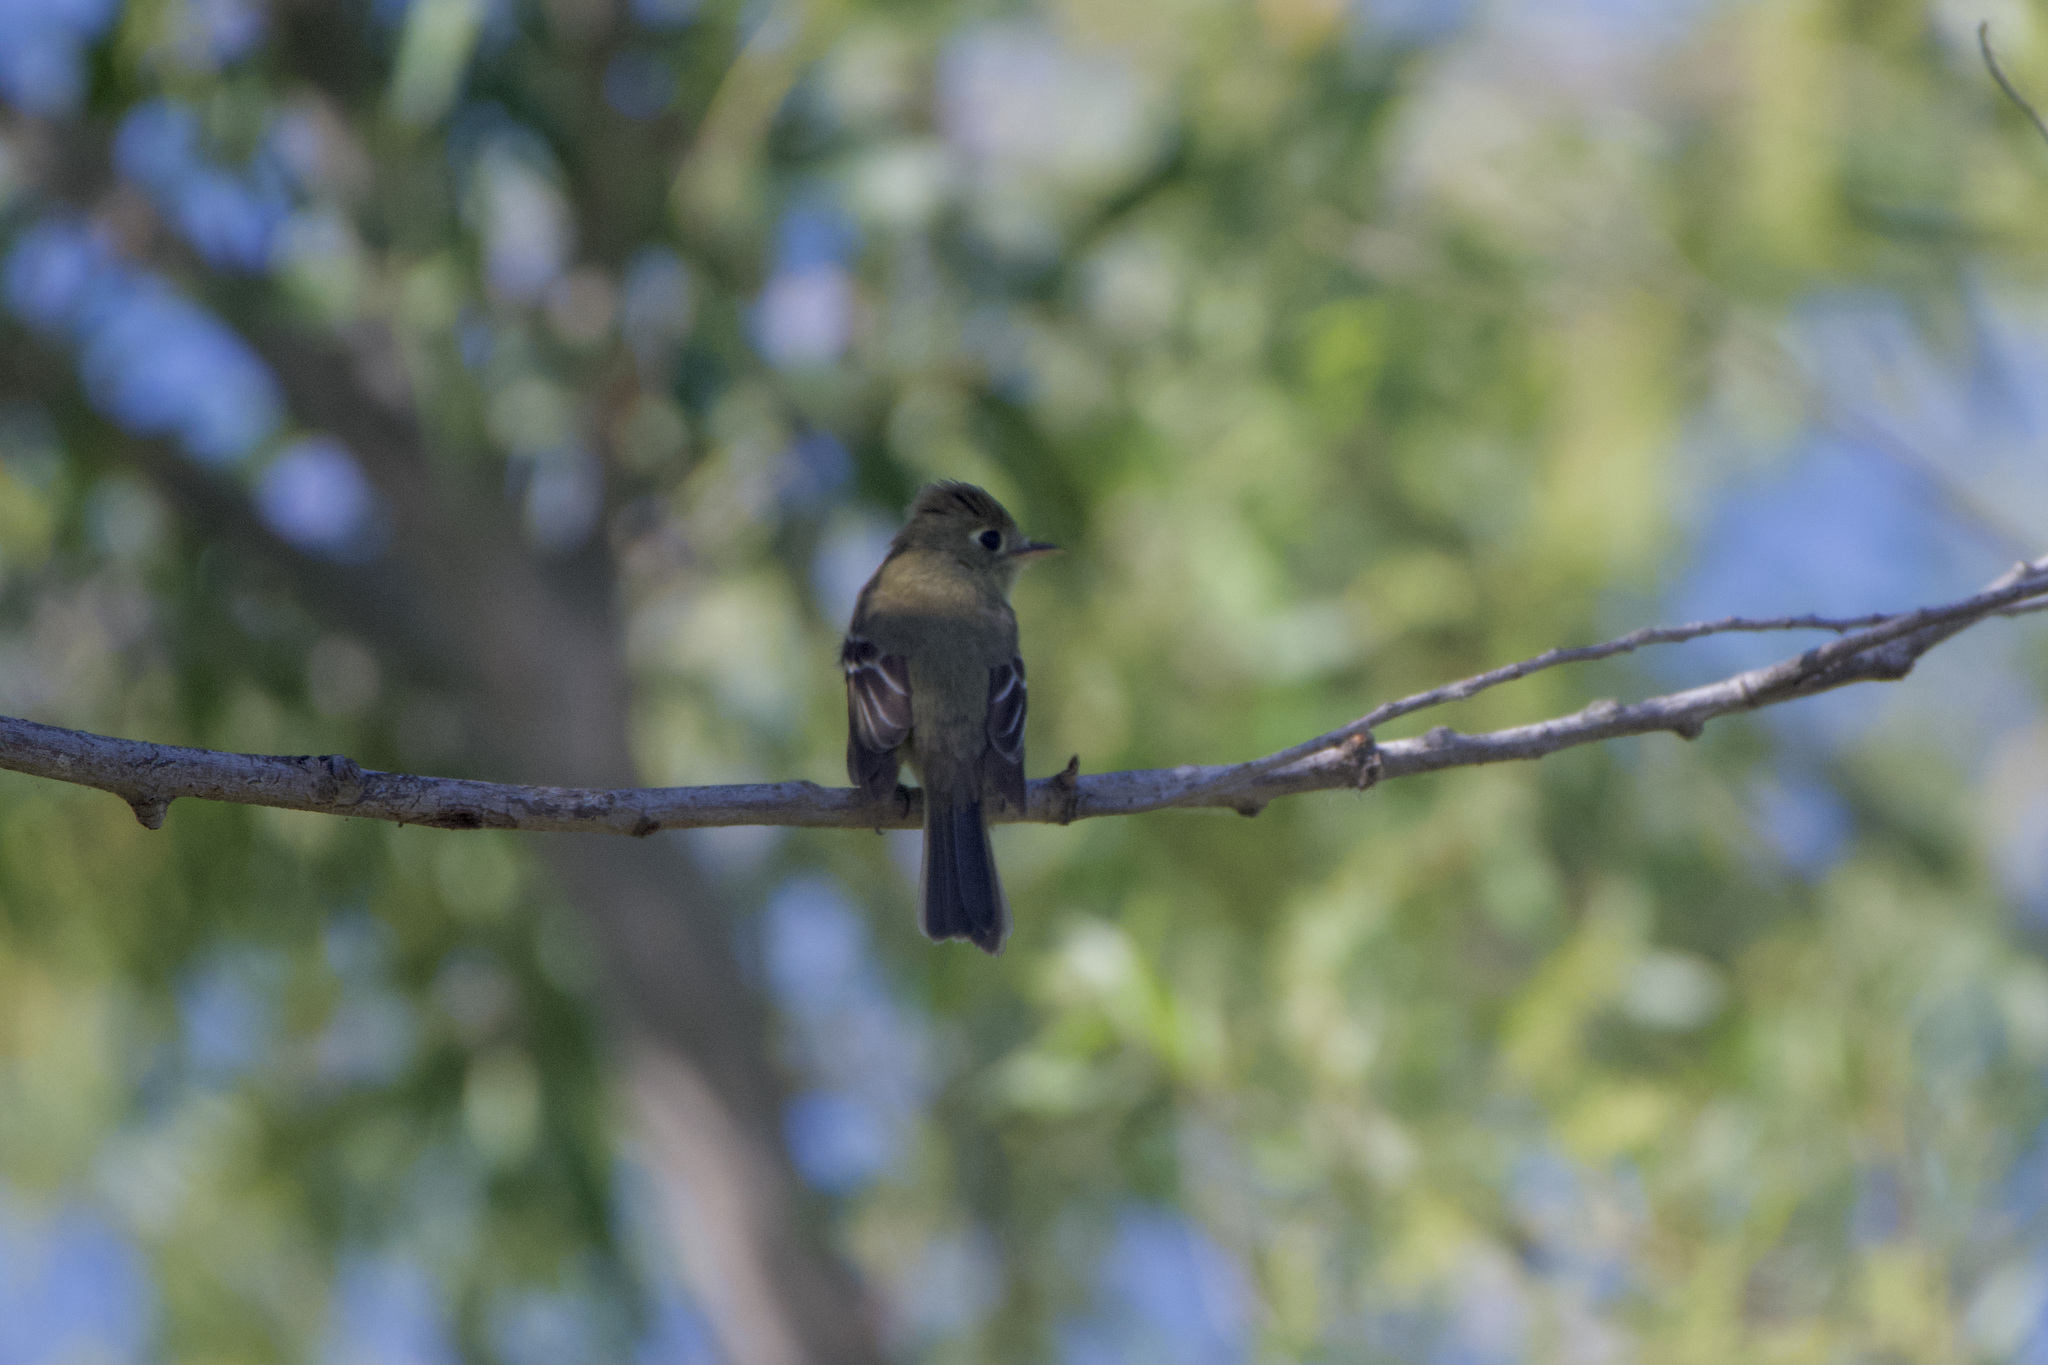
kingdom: Animalia
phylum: Chordata
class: Aves
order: Passeriformes
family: Tyrannidae
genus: Empidonax
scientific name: Empidonax difficilis
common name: Pacific-slope flycatcher
